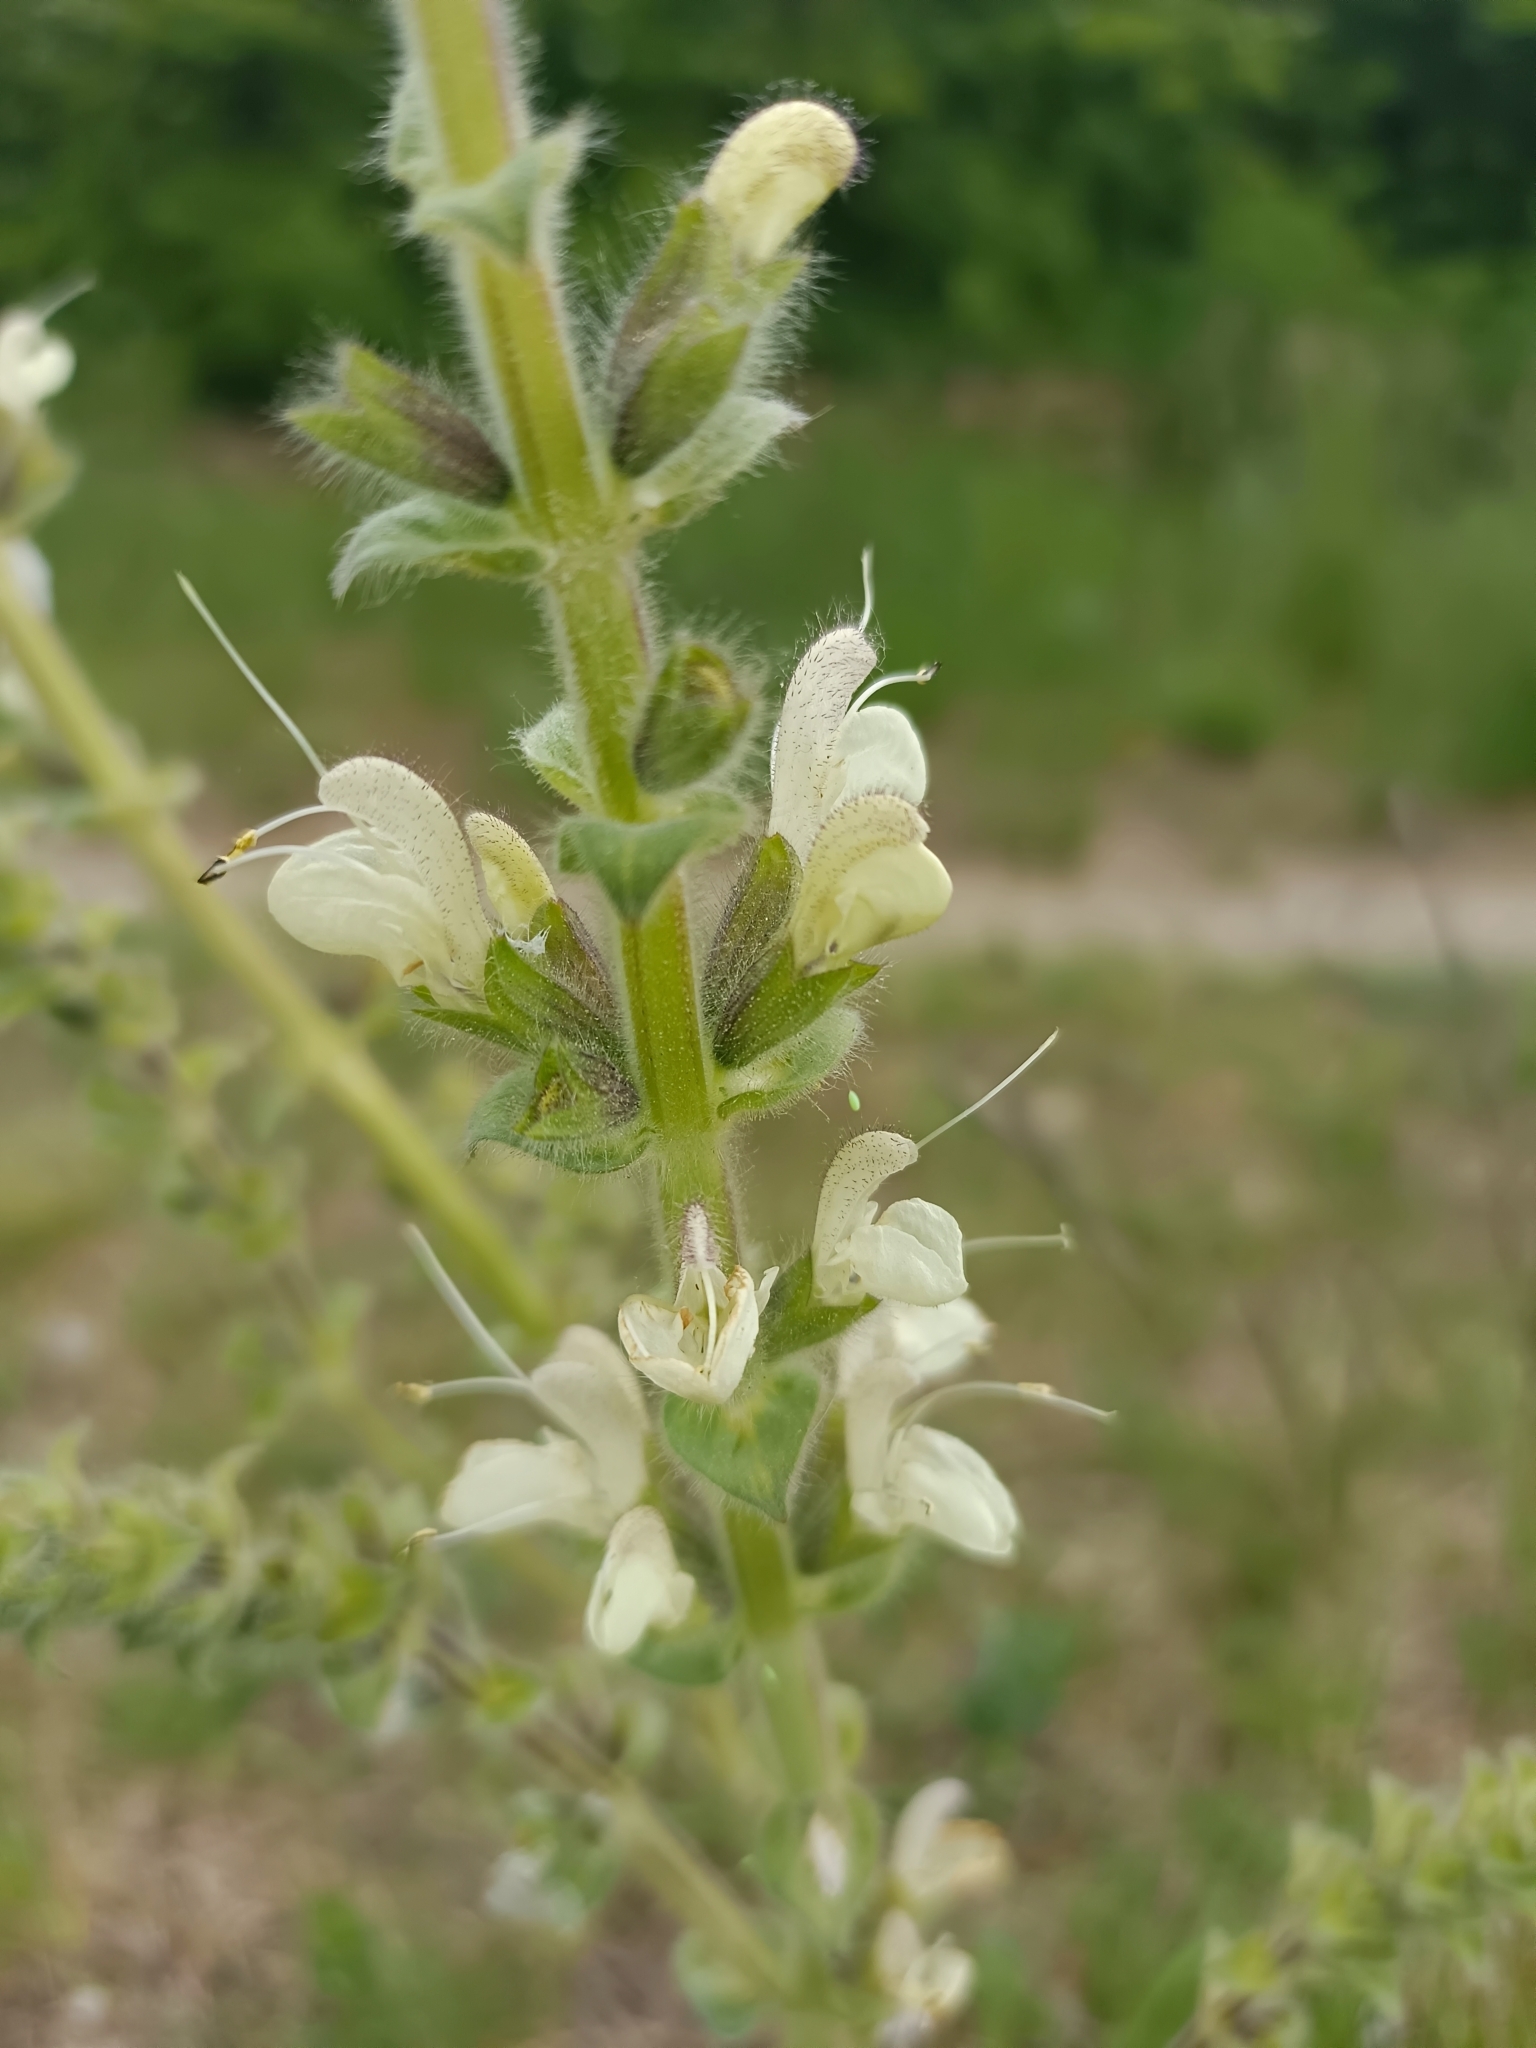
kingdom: Plantae
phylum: Tracheophyta
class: Magnoliopsida
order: Lamiales
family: Lamiaceae
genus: Salvia
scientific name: Salvia austriaca
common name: Austrian sage
